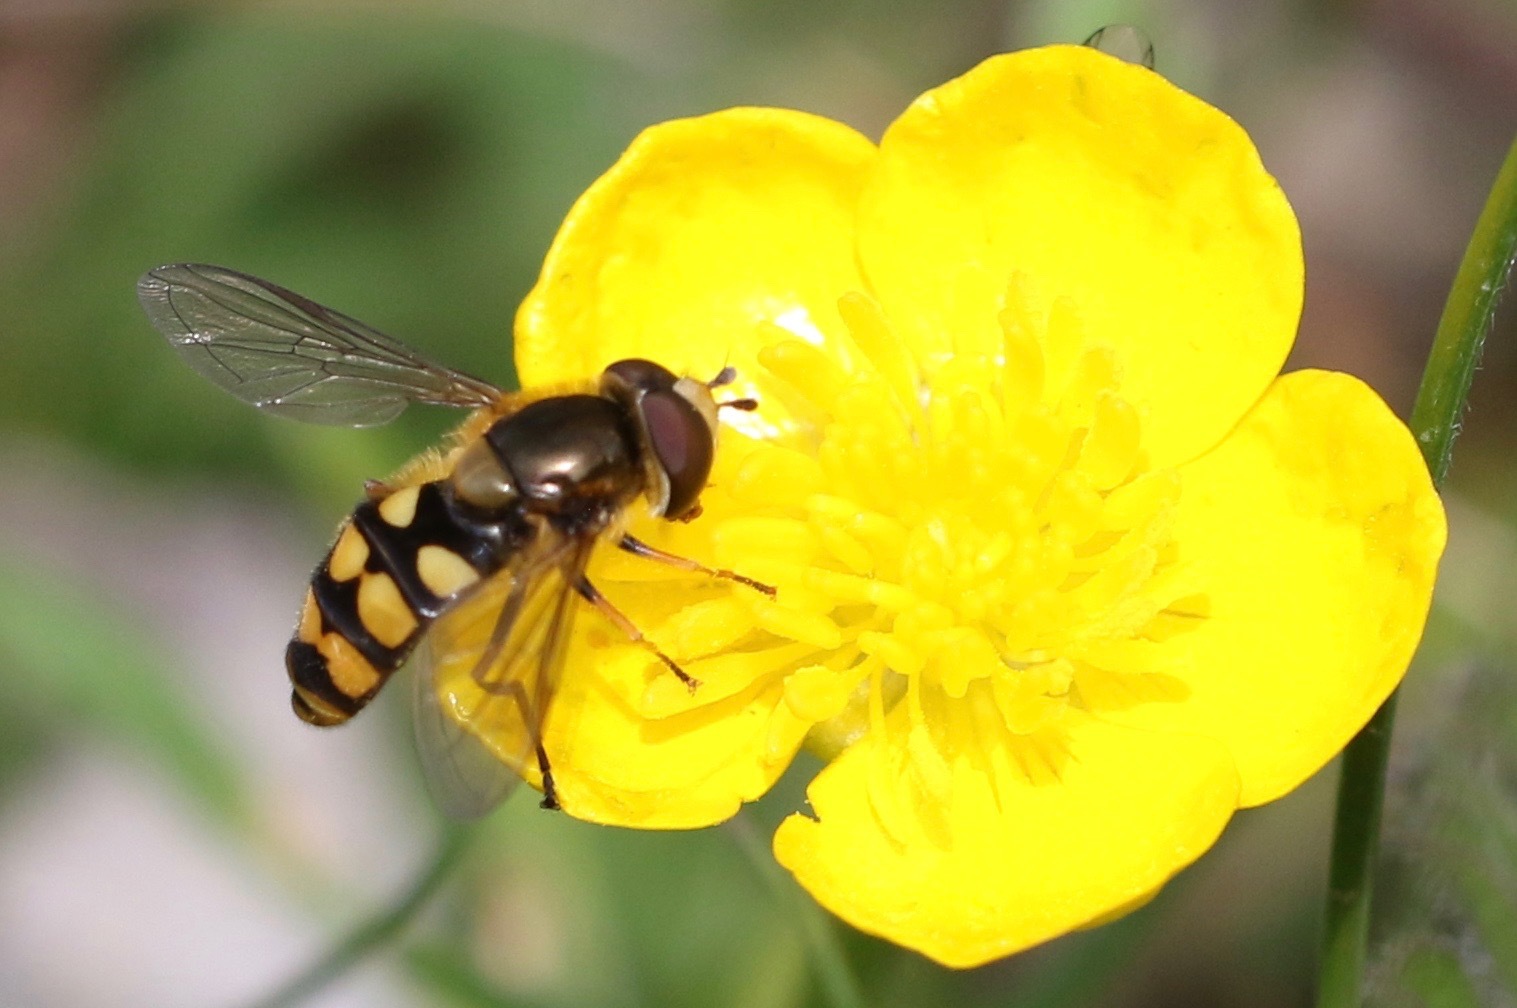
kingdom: Animalia
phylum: Arthropoda
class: Insecta
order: Diptera
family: Syrphidae
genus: Eupeodes
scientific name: Eupeodes
